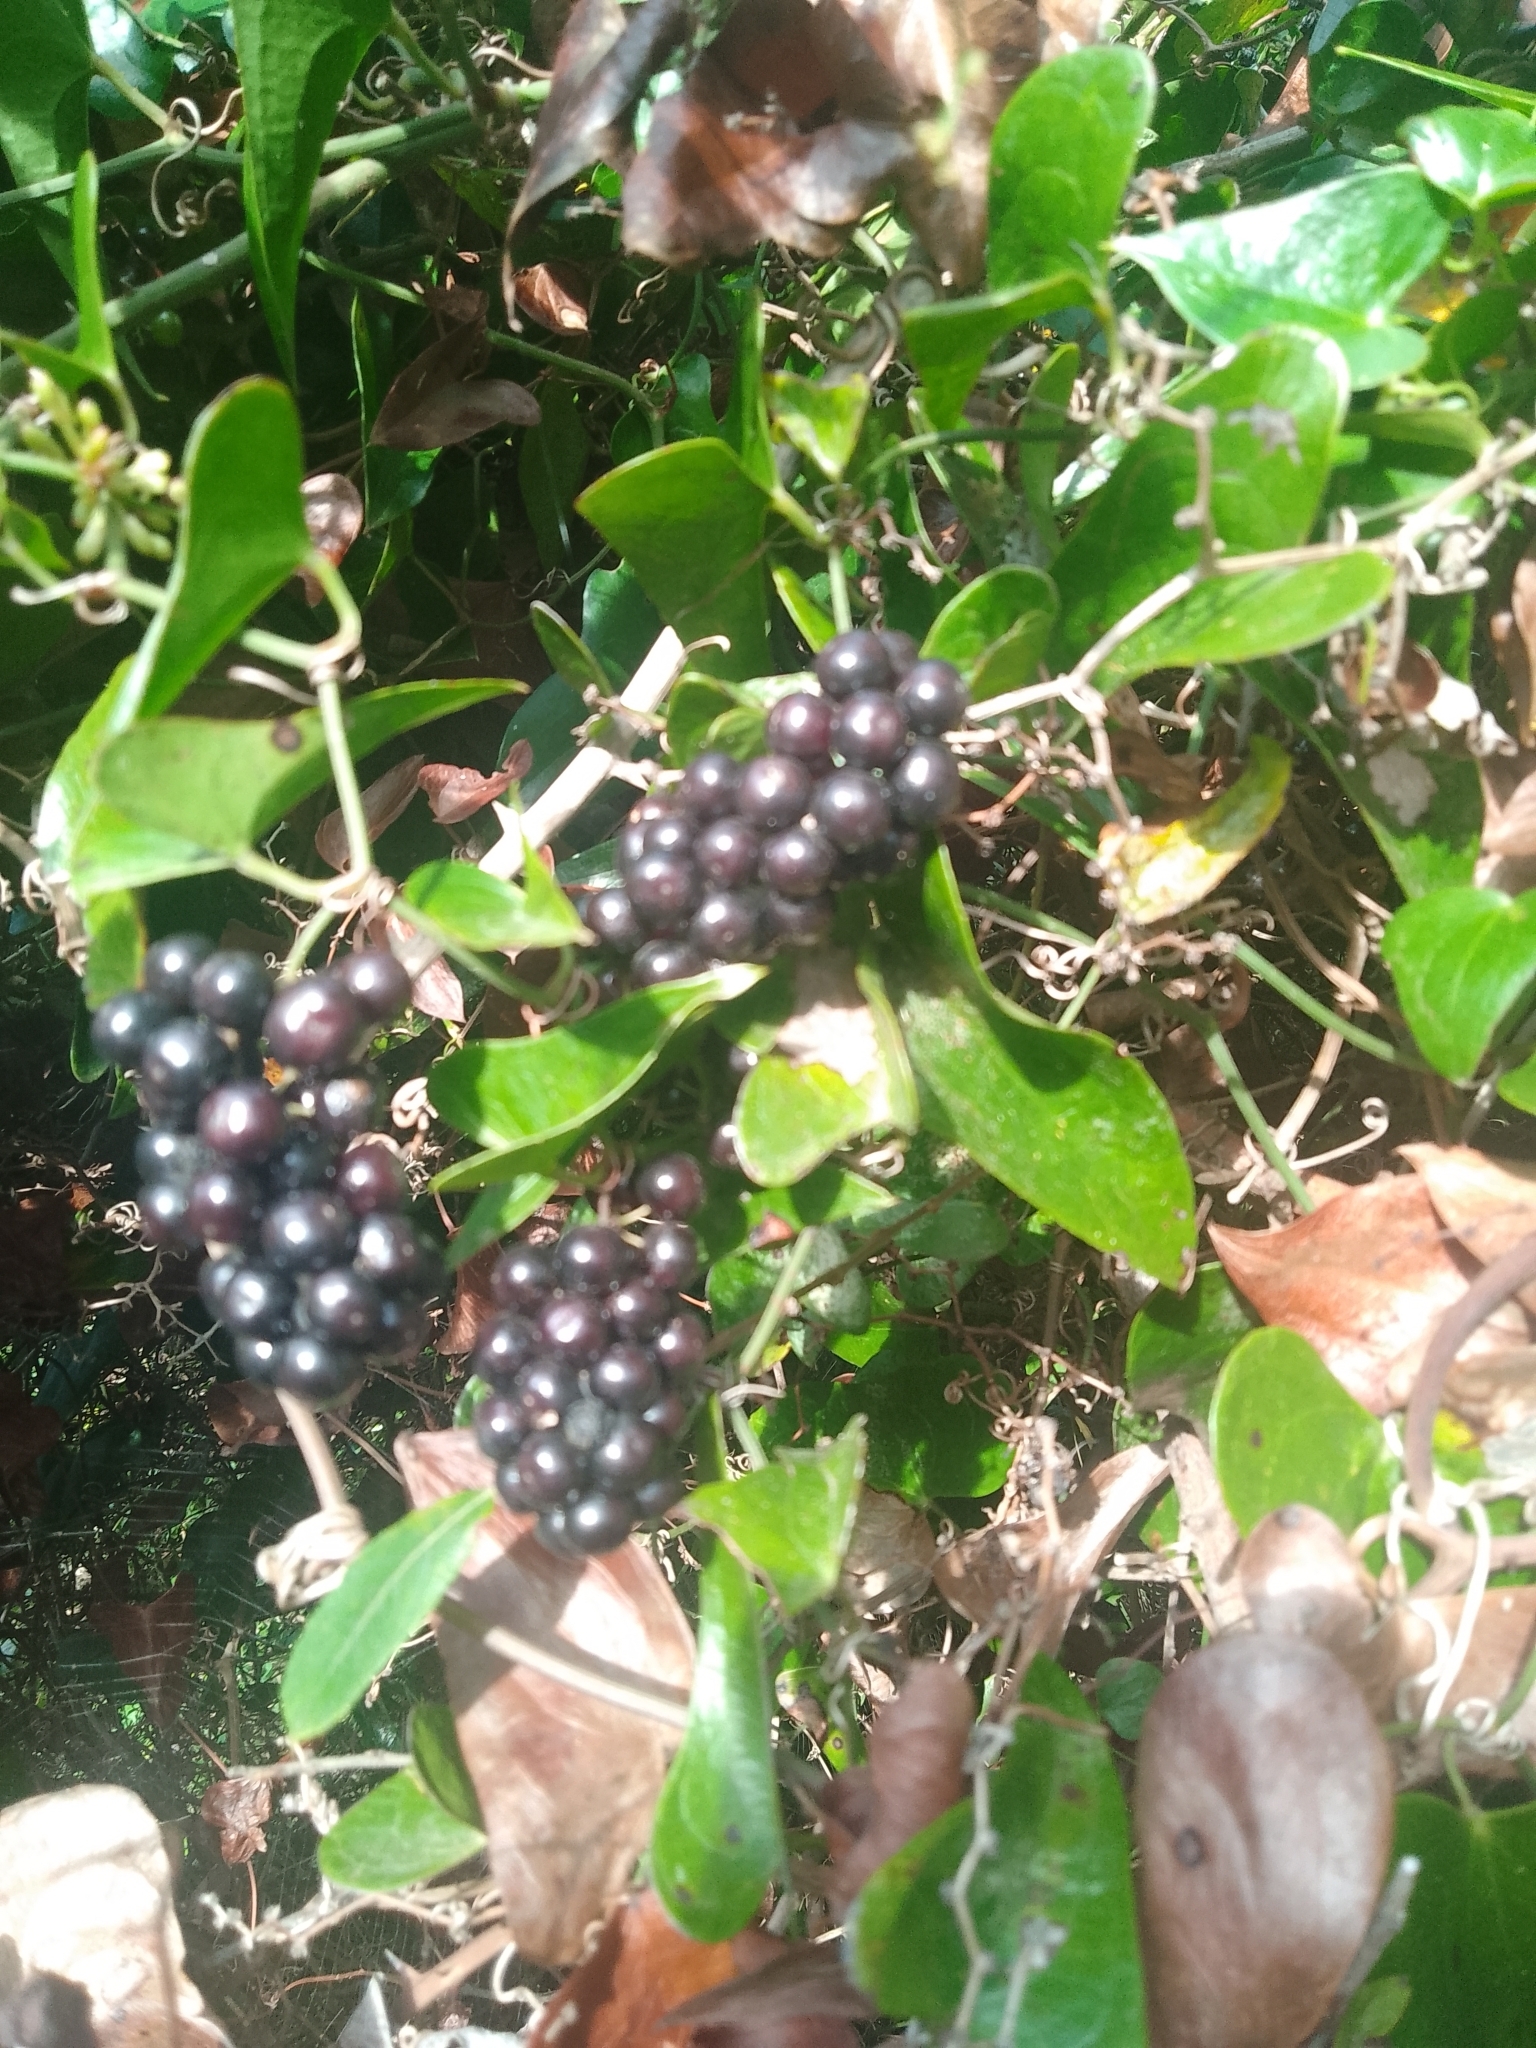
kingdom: Plantae
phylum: Tracheophyta
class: Liliopsida
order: Liliales
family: Smilacaceae
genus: Smilax
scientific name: Smilax aspera
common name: Common smilax
